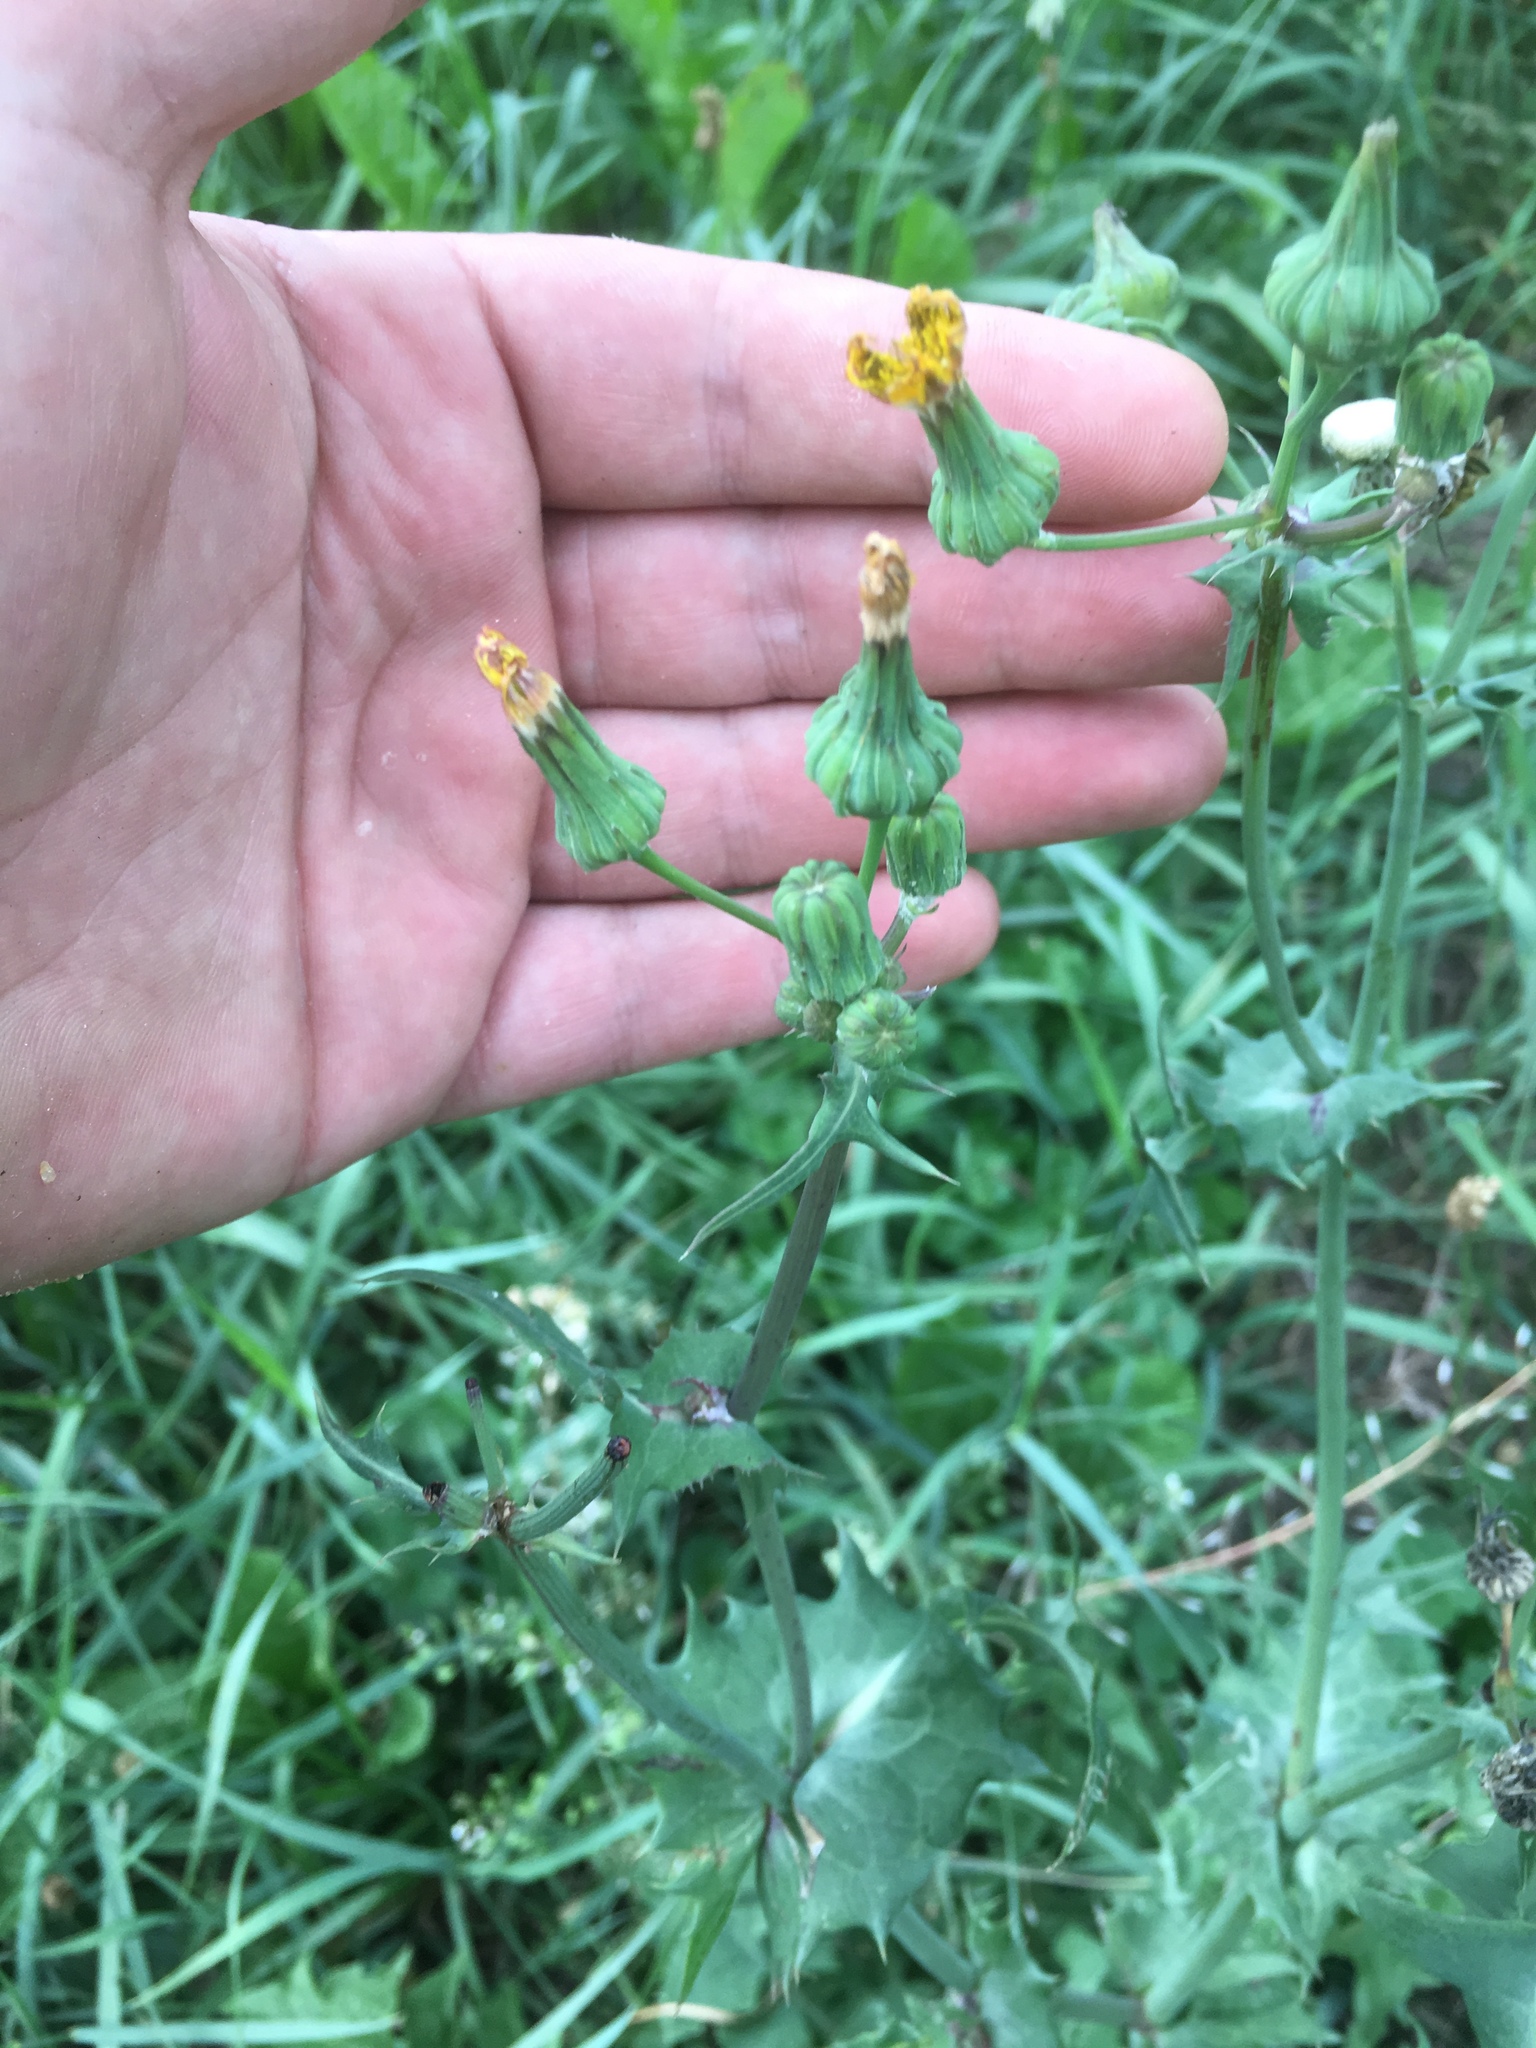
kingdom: Plantae
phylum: Tracheophyta
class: Magnoliopsida
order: Asterales
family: Asteraceae
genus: Sonchus
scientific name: Sonchus oleraceus
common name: Common sowthistle
